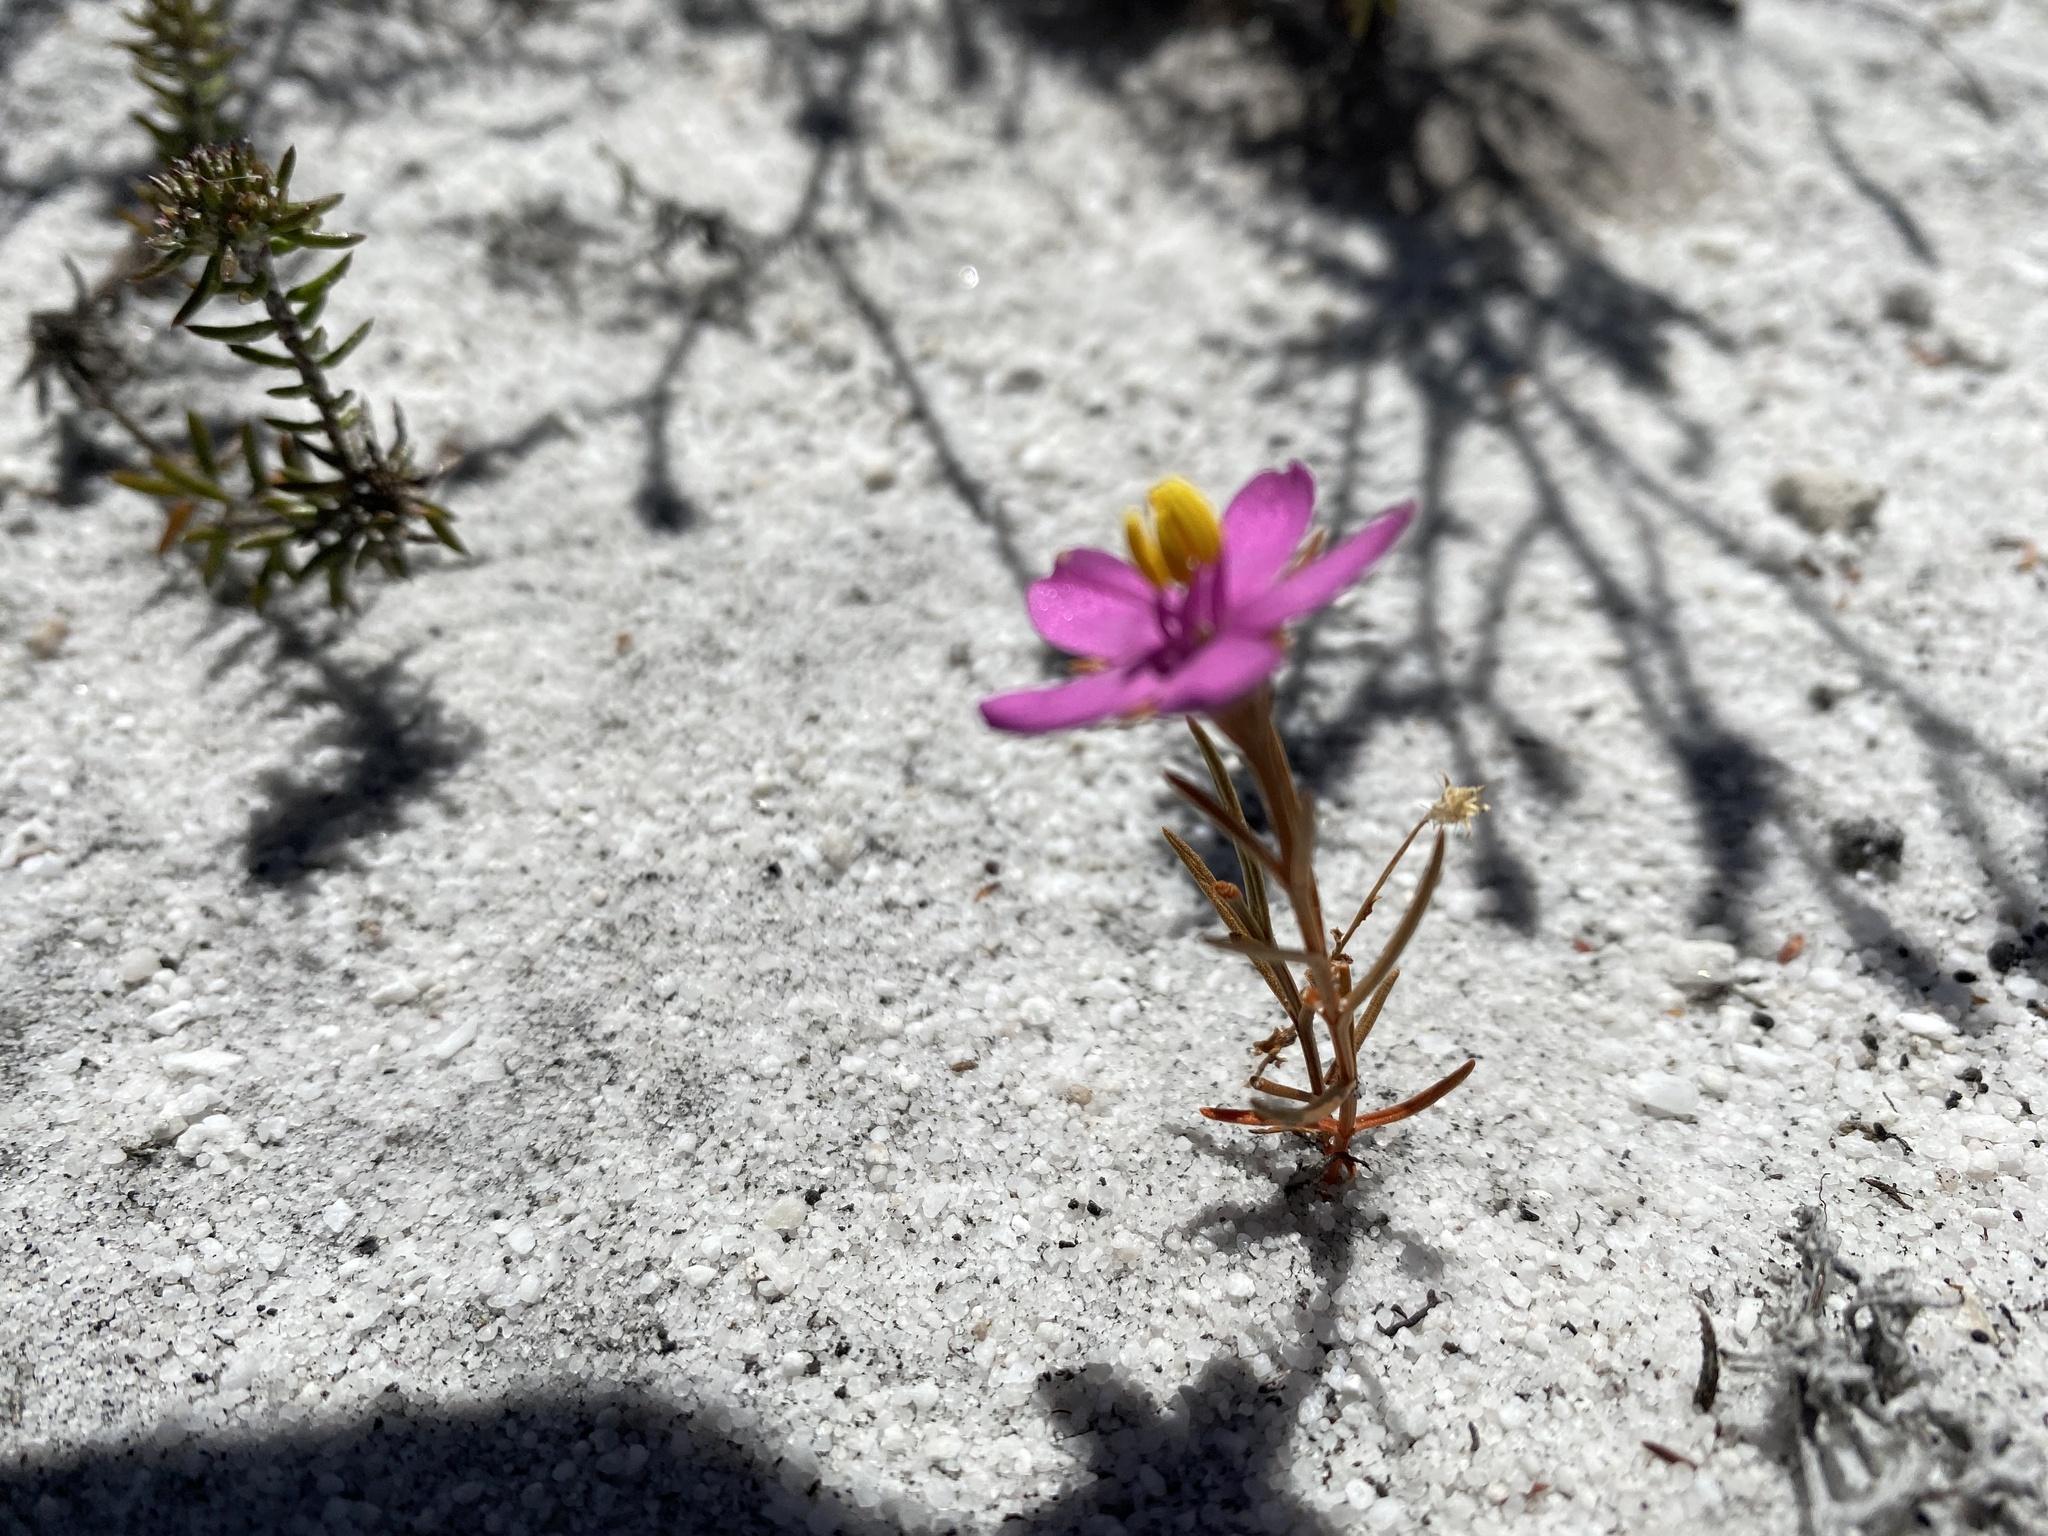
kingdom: Plantae
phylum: Tracheophyta
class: Magnoliopsida
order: Gentianales
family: Gentianaceae
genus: Chironia
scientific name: Chironia linoides
